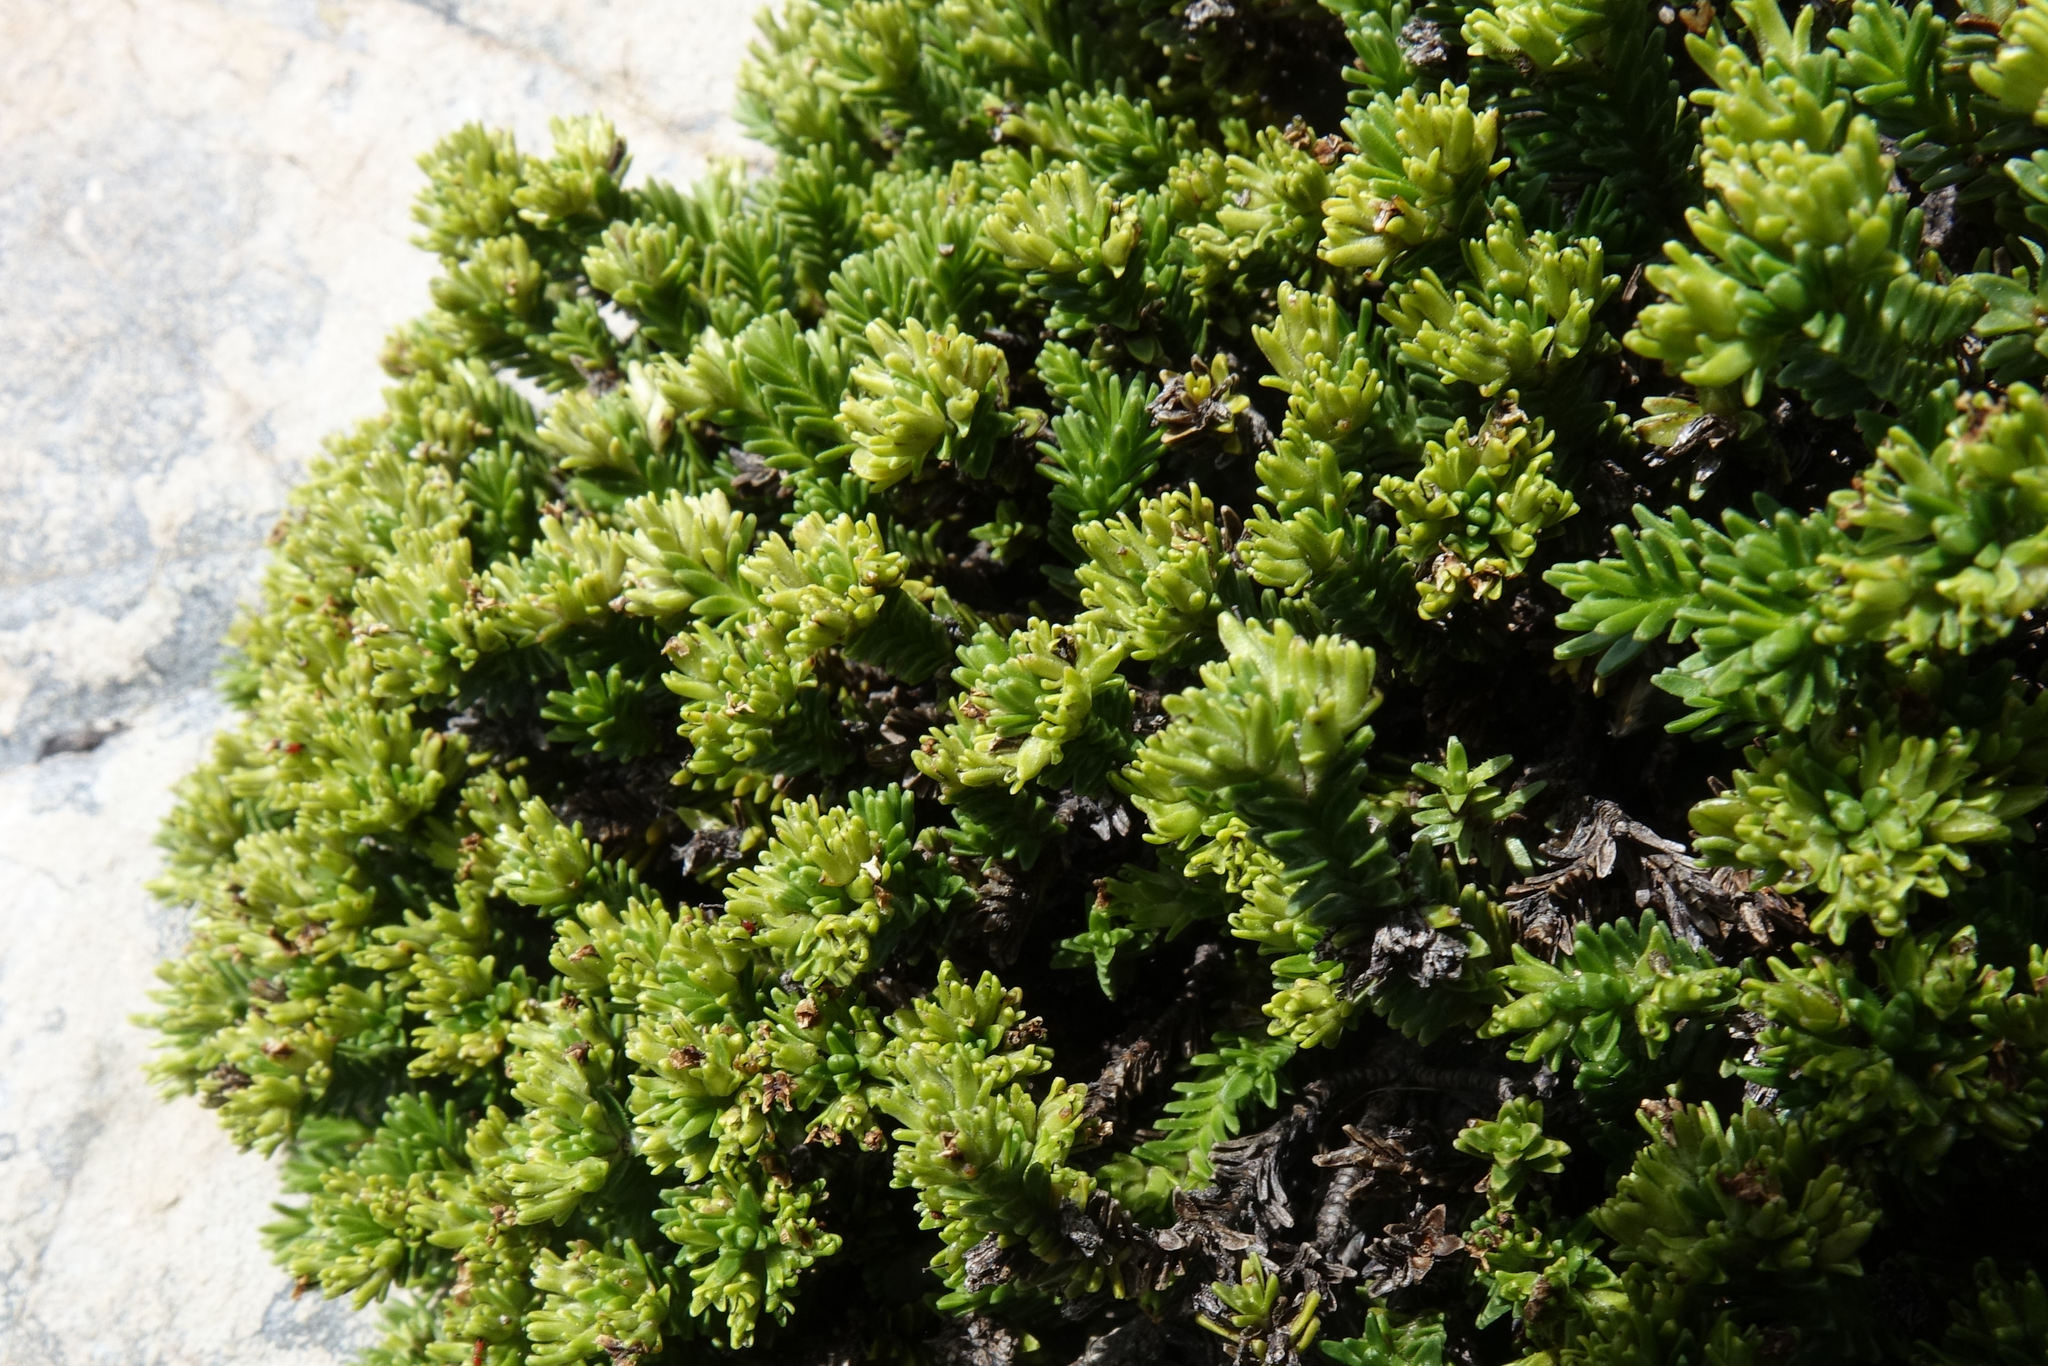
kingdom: Plantae
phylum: Tracheophyta
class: Magnoliopsida
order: Lamiales
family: Plantaginaceae
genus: Veronica
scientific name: Veronica hookeri
